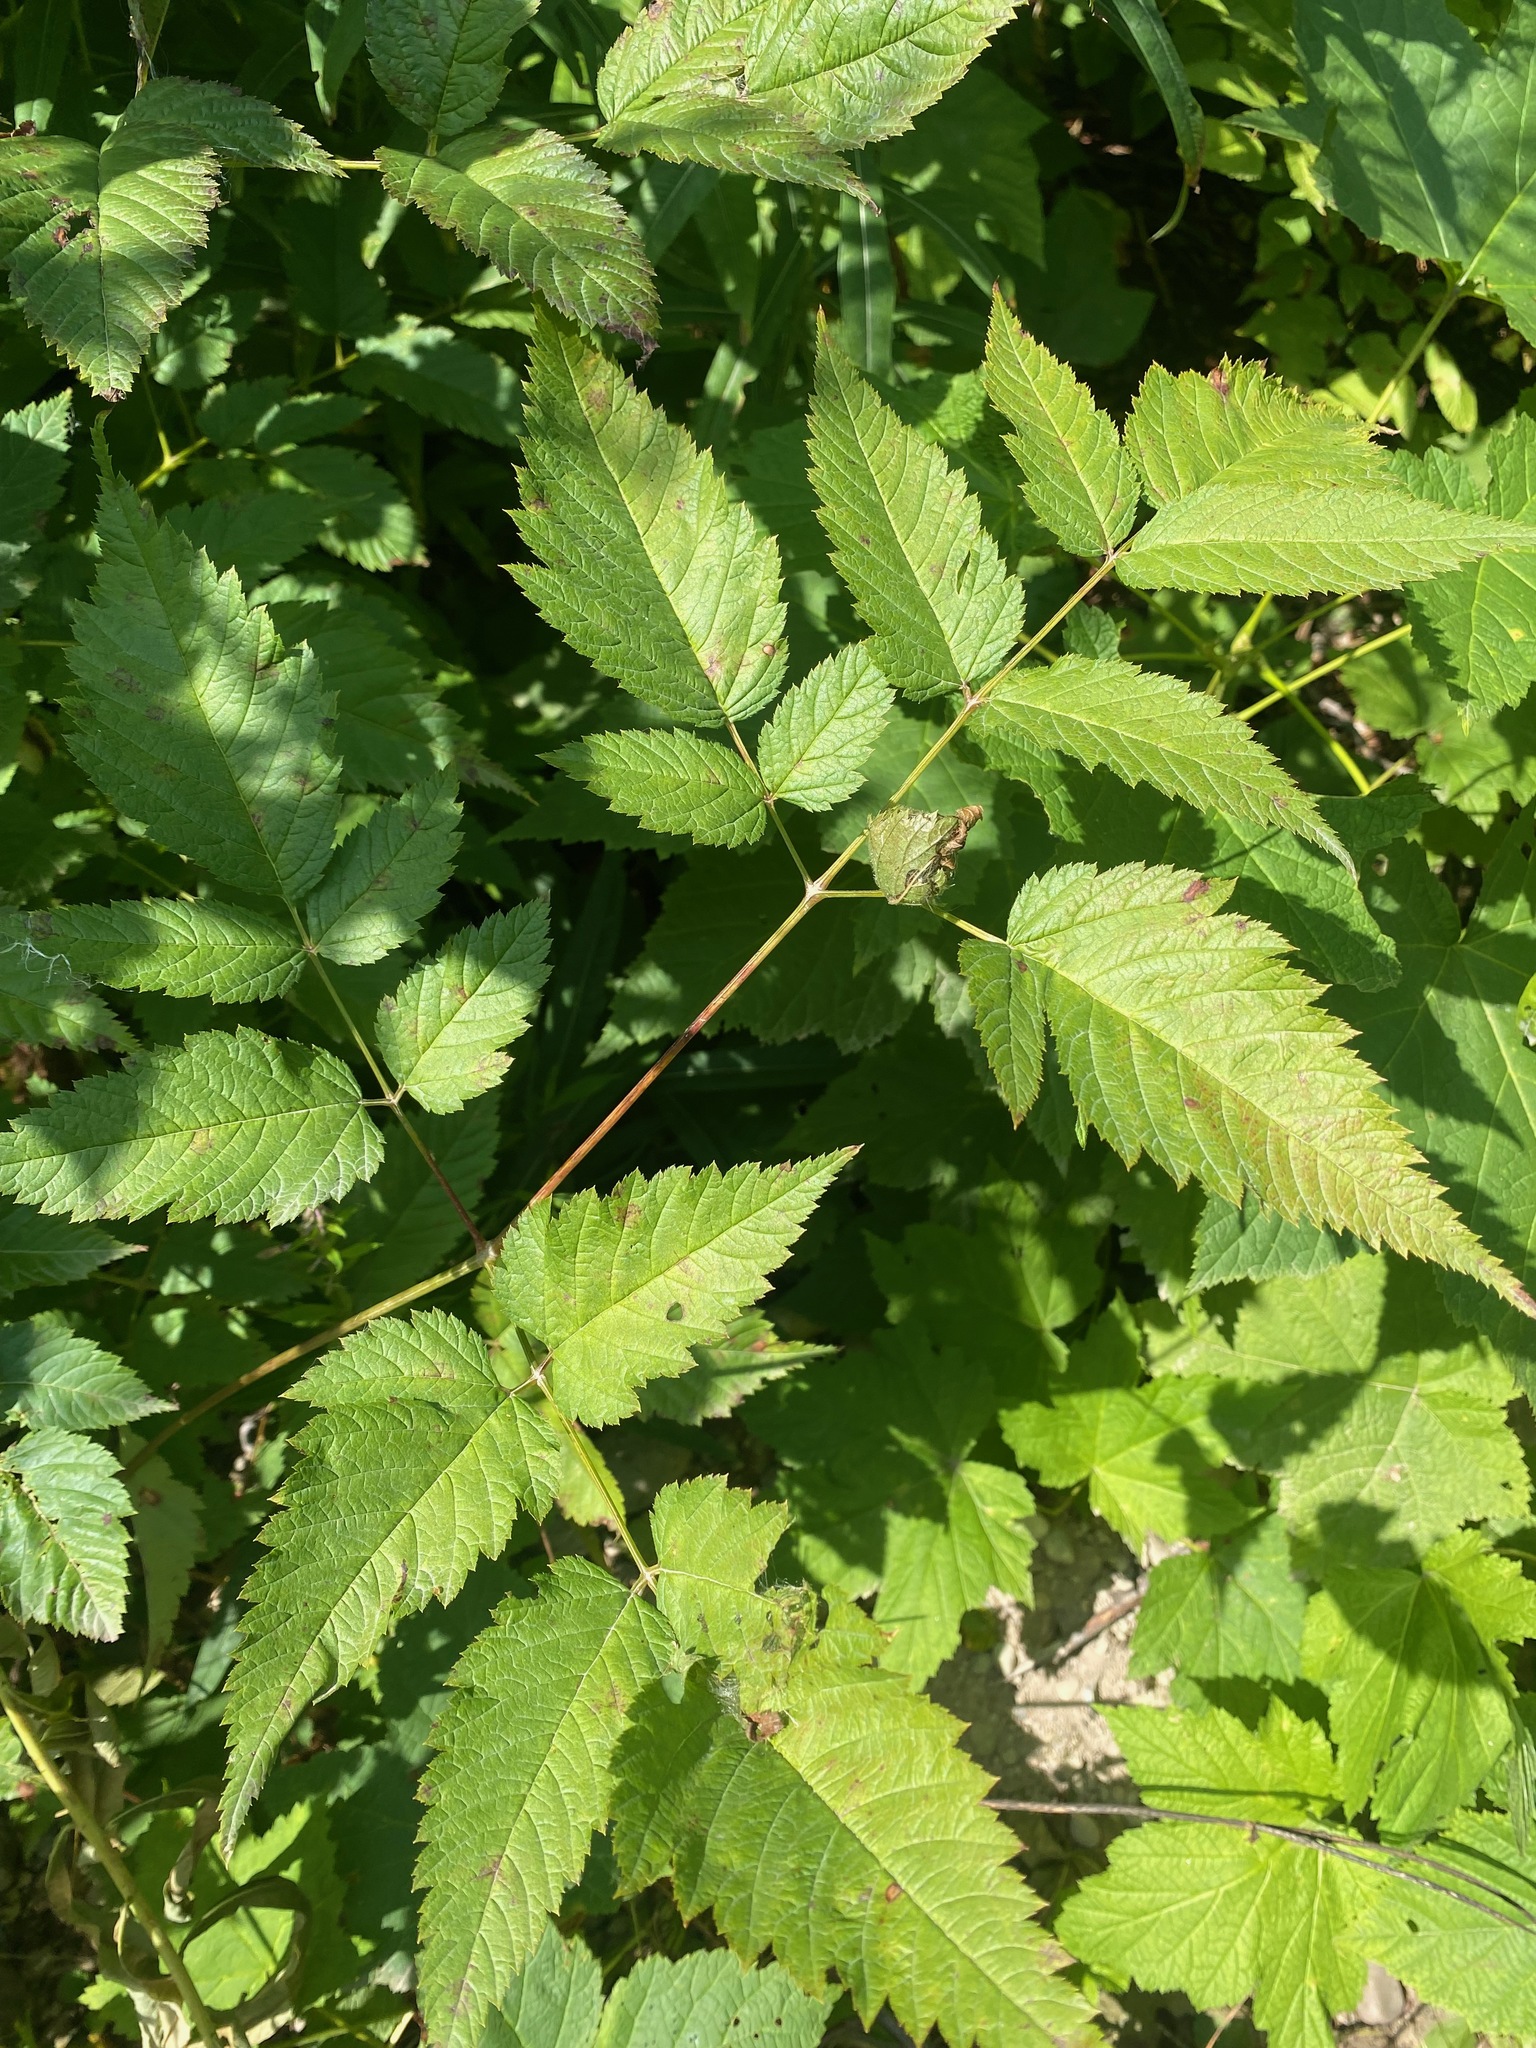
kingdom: Plantae
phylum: Tracheophyta
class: Magnoliopsida
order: Rosales
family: Rosaceae
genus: Aruncus
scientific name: Aruncus dioicus
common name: Buck's-beard
